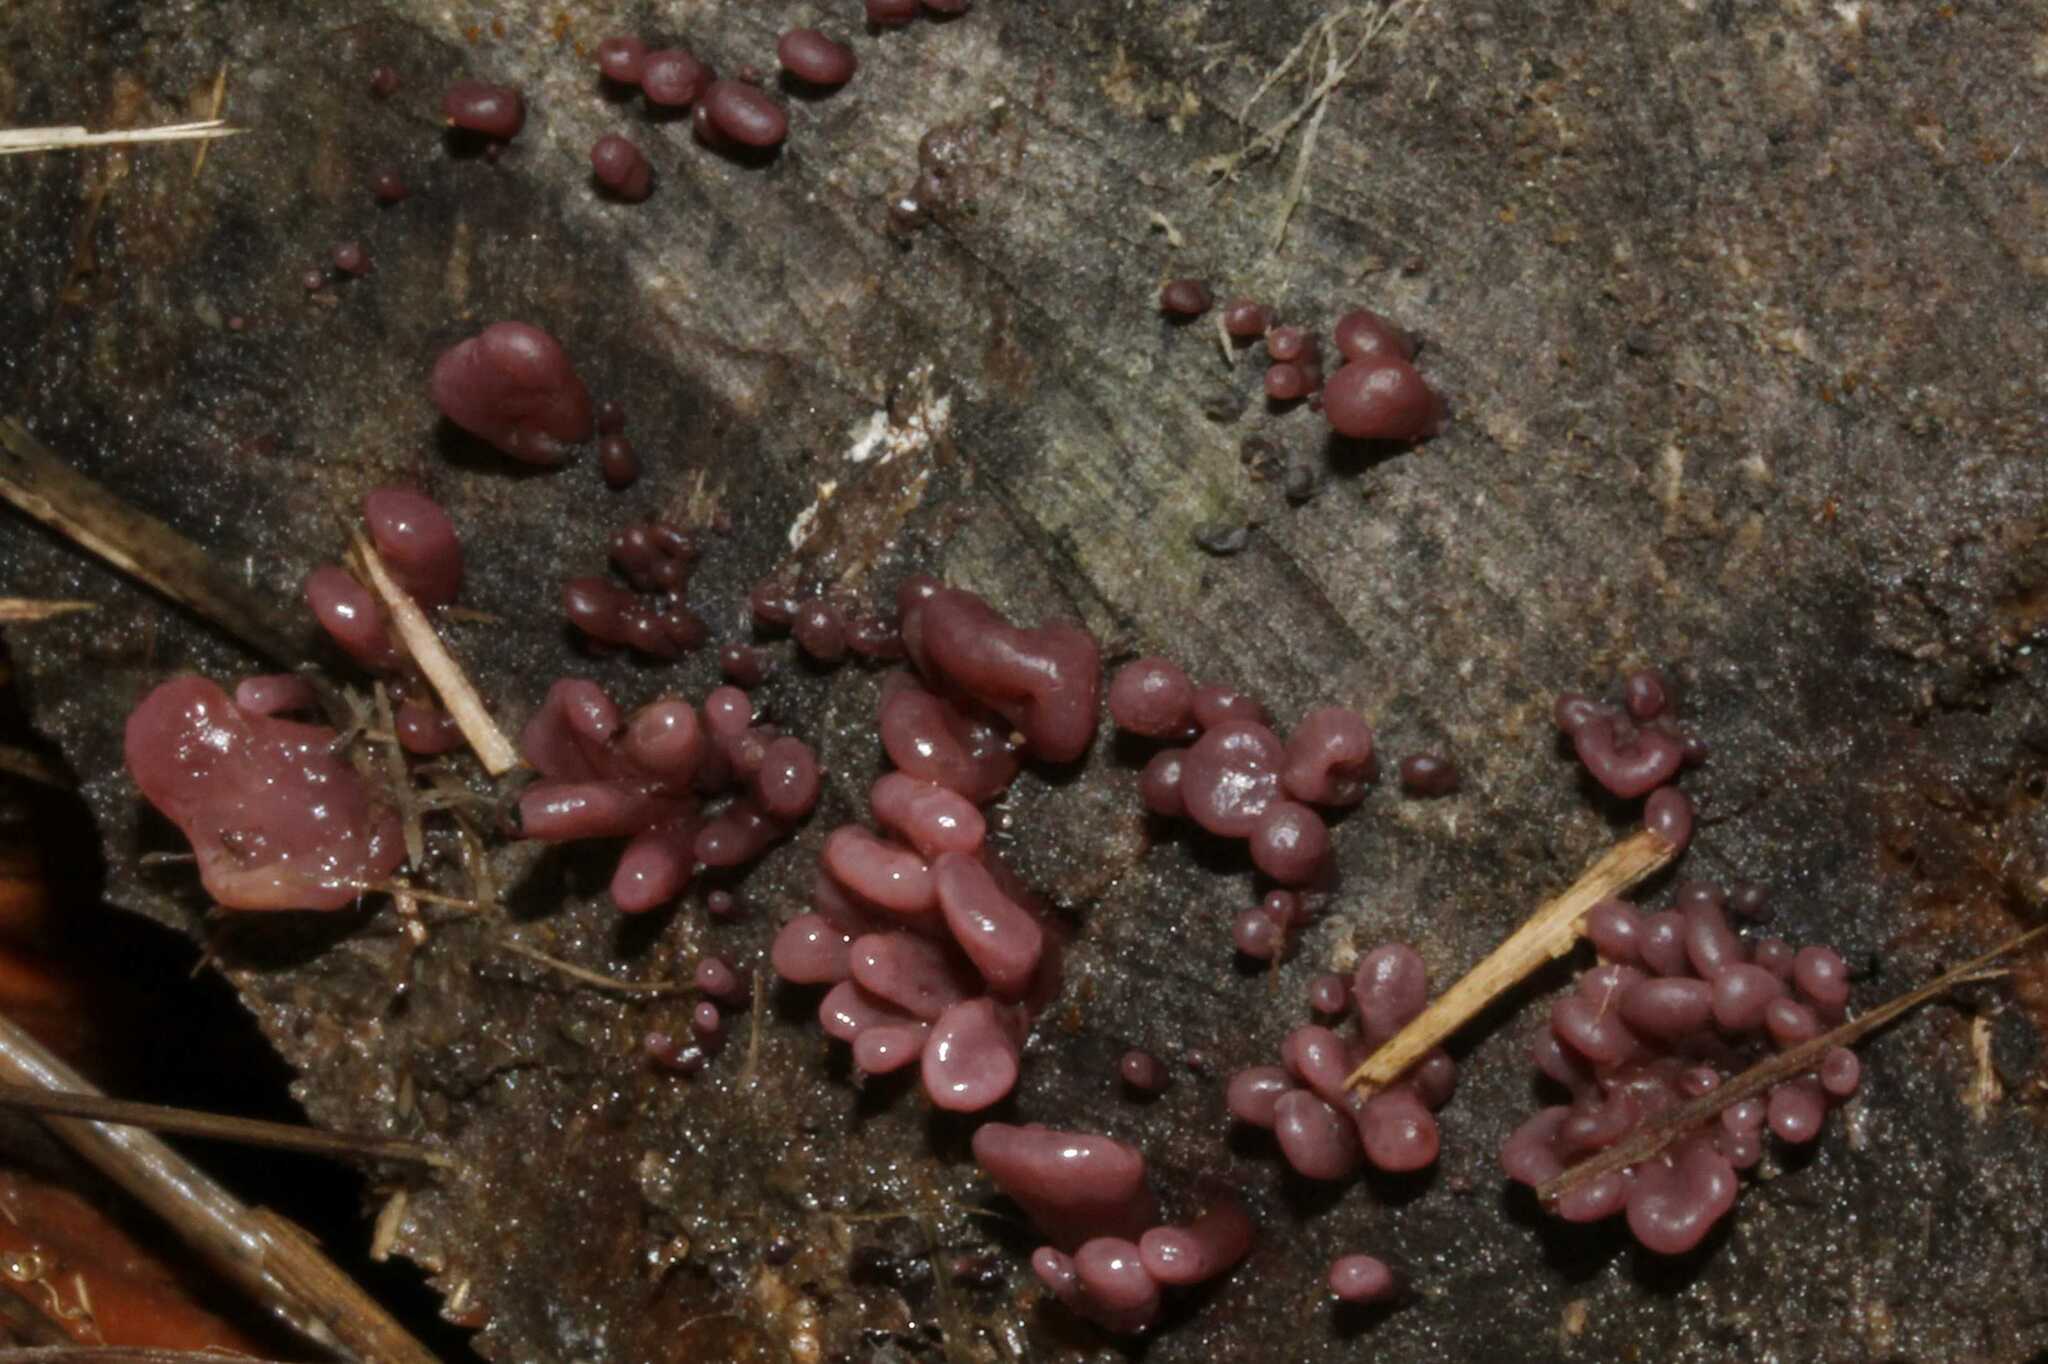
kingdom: Fungi
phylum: Ascomycota
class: Leotiomycetes
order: Helotiales
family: Gelatinodiscaceae
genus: Ascocoryne
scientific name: Ascocoryne sarcoides
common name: Purple jellydisc
